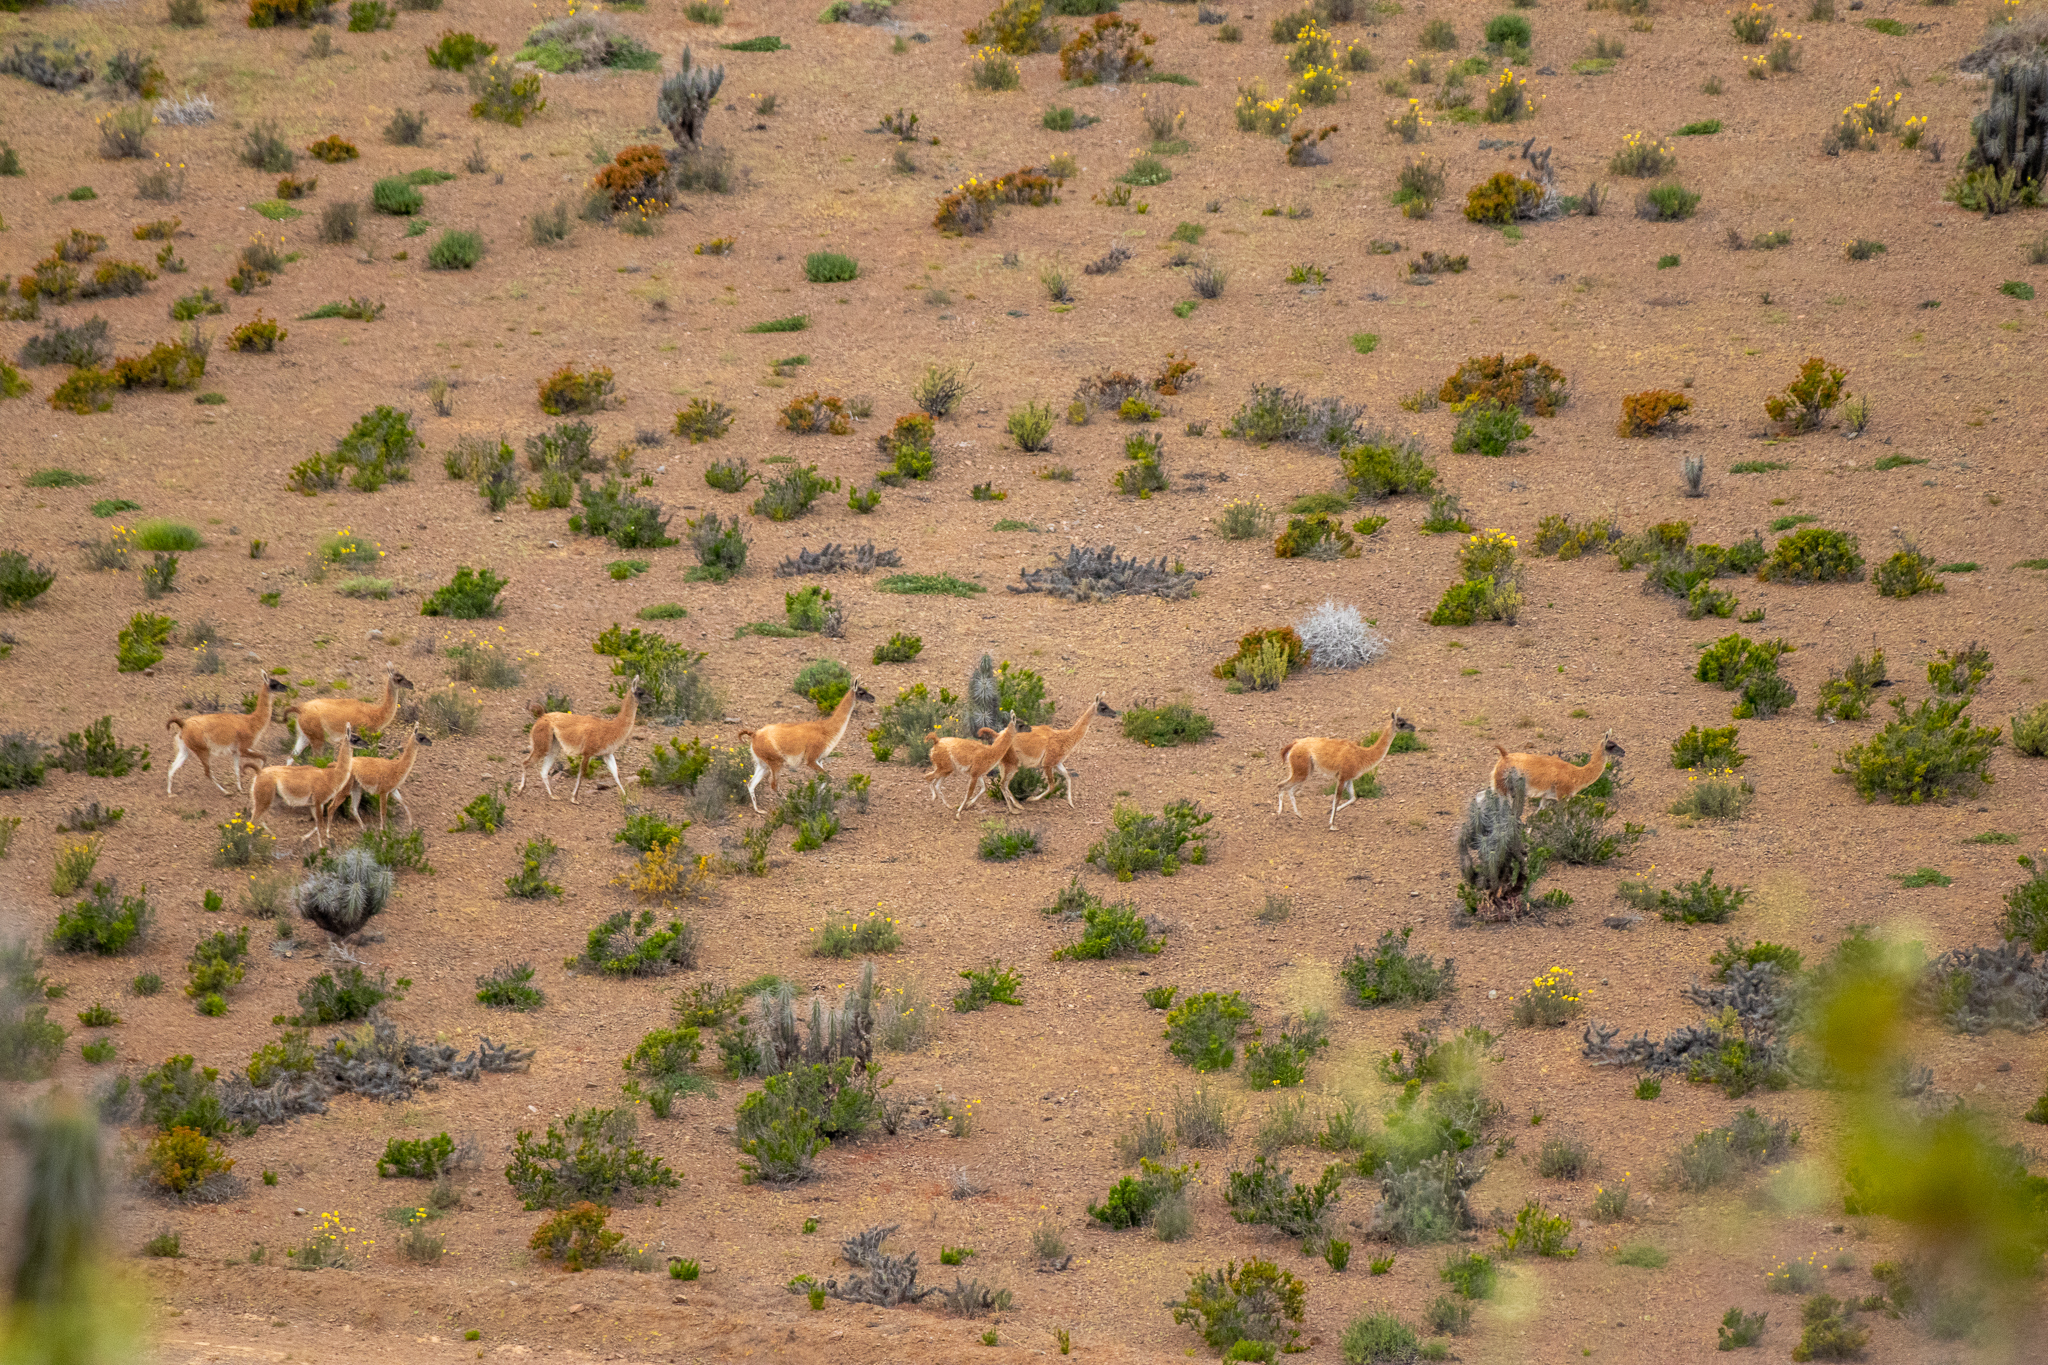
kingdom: Animalia
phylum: Chordata
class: Mammalia
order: Artiodactyla
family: Camelidae
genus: Lama
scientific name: Lama glama
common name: Llama
